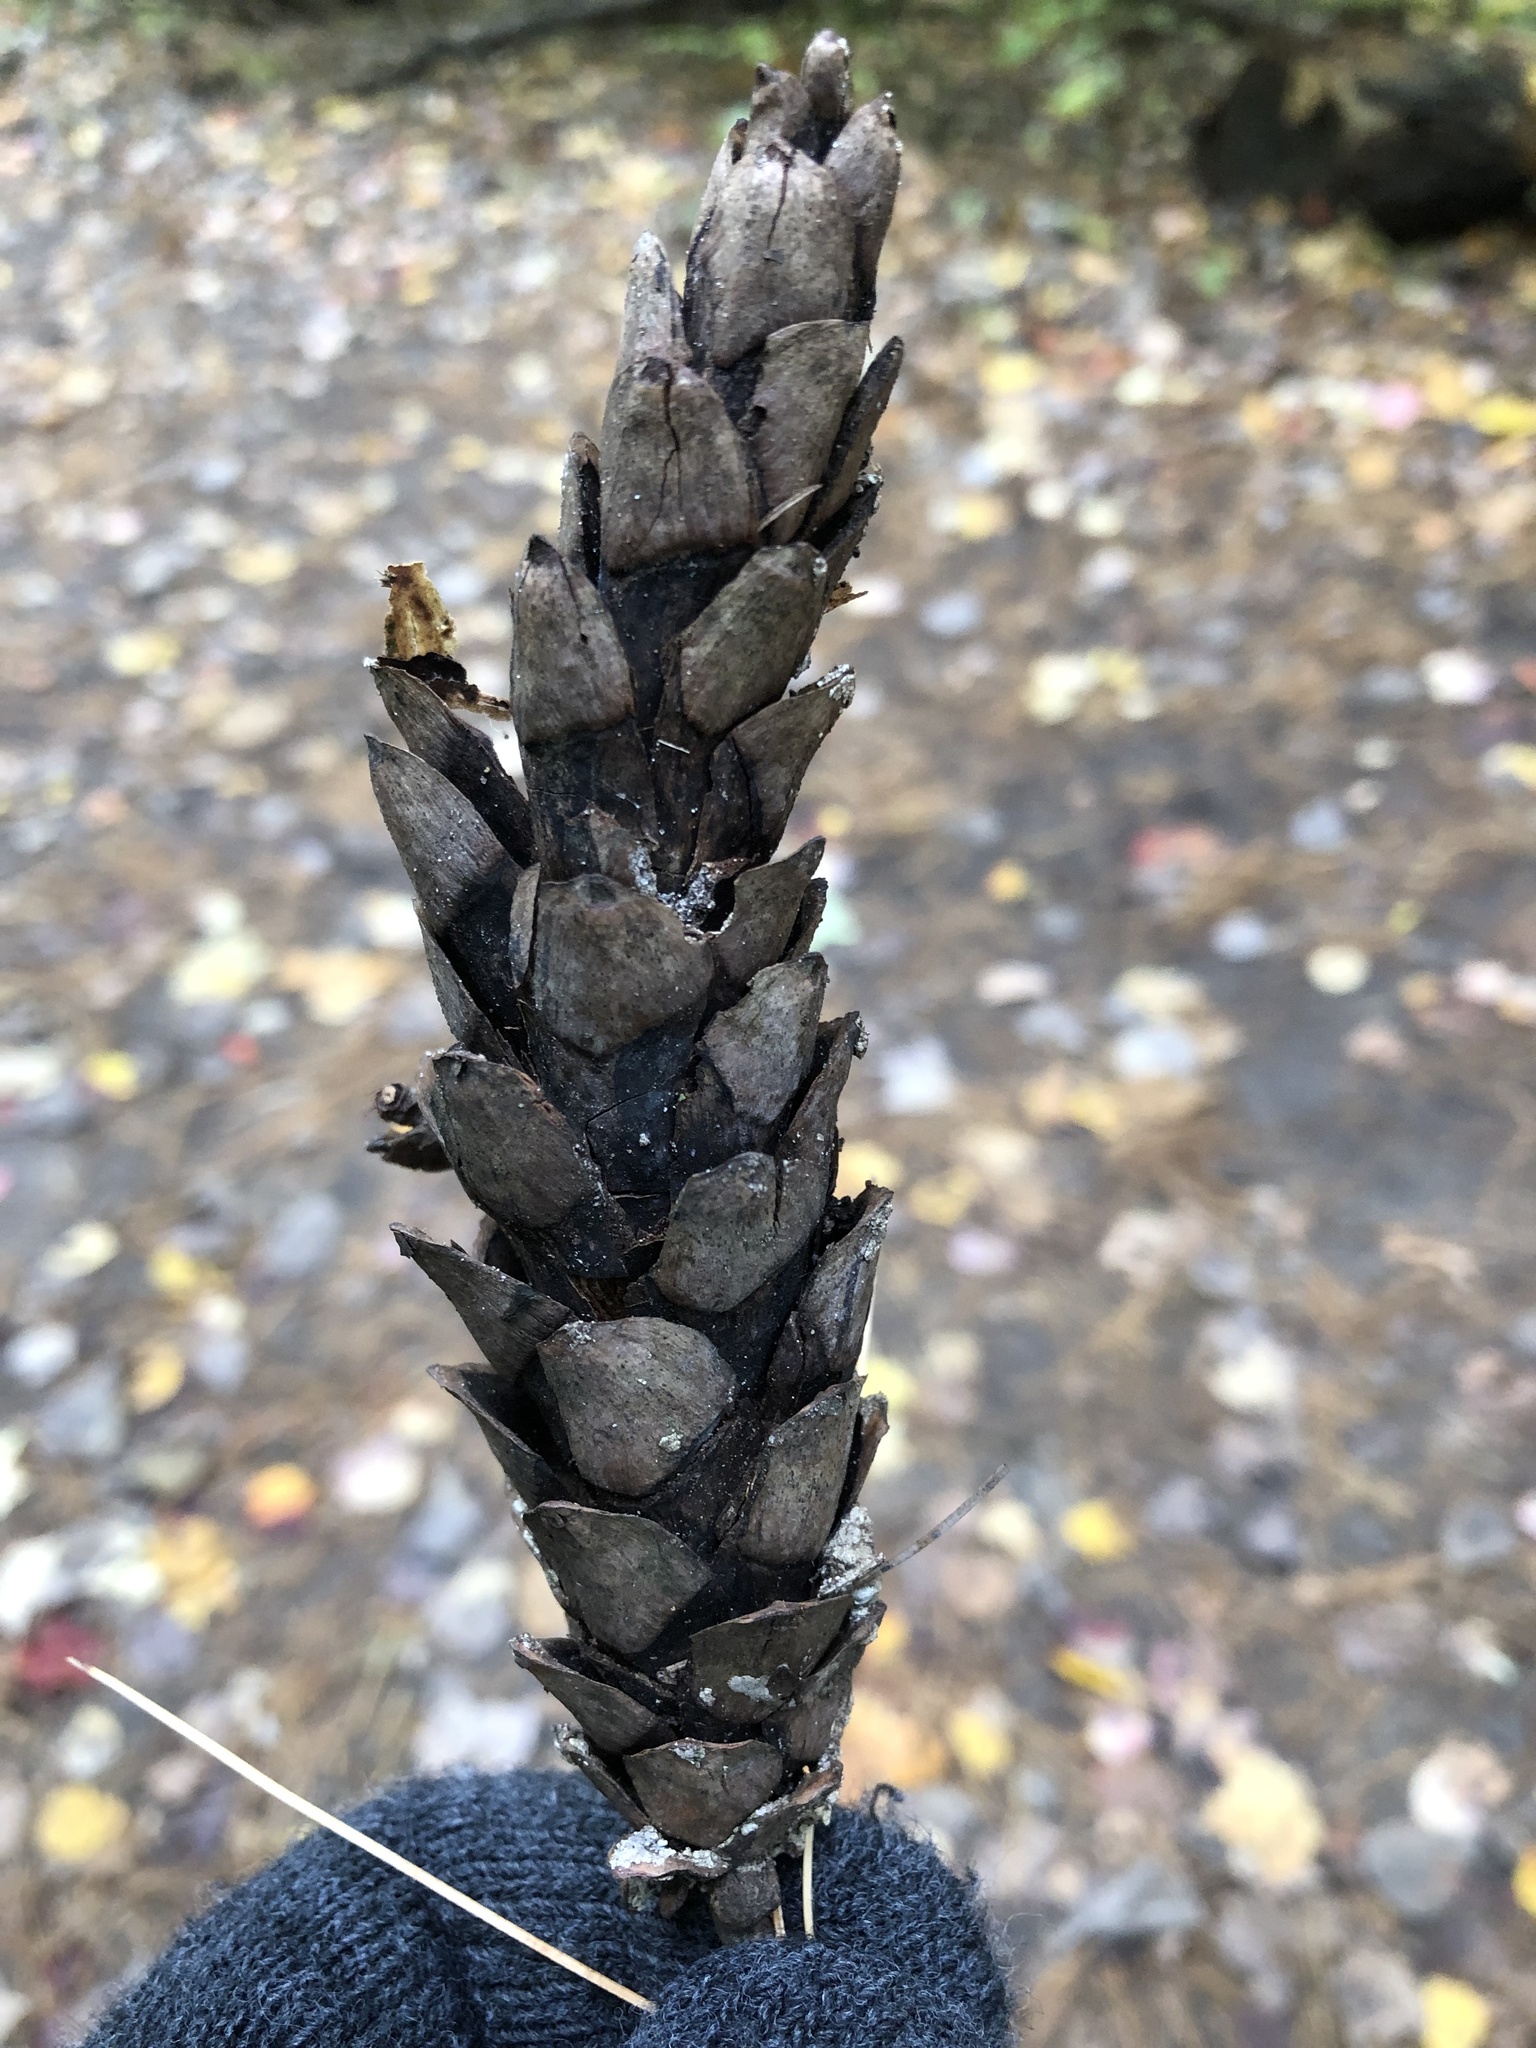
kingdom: Plantae
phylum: Tracheophyta
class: Pinopsida
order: Pinales
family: Pinaceae
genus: Pinus
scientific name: Pinus strobus
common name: Weymouth pine
